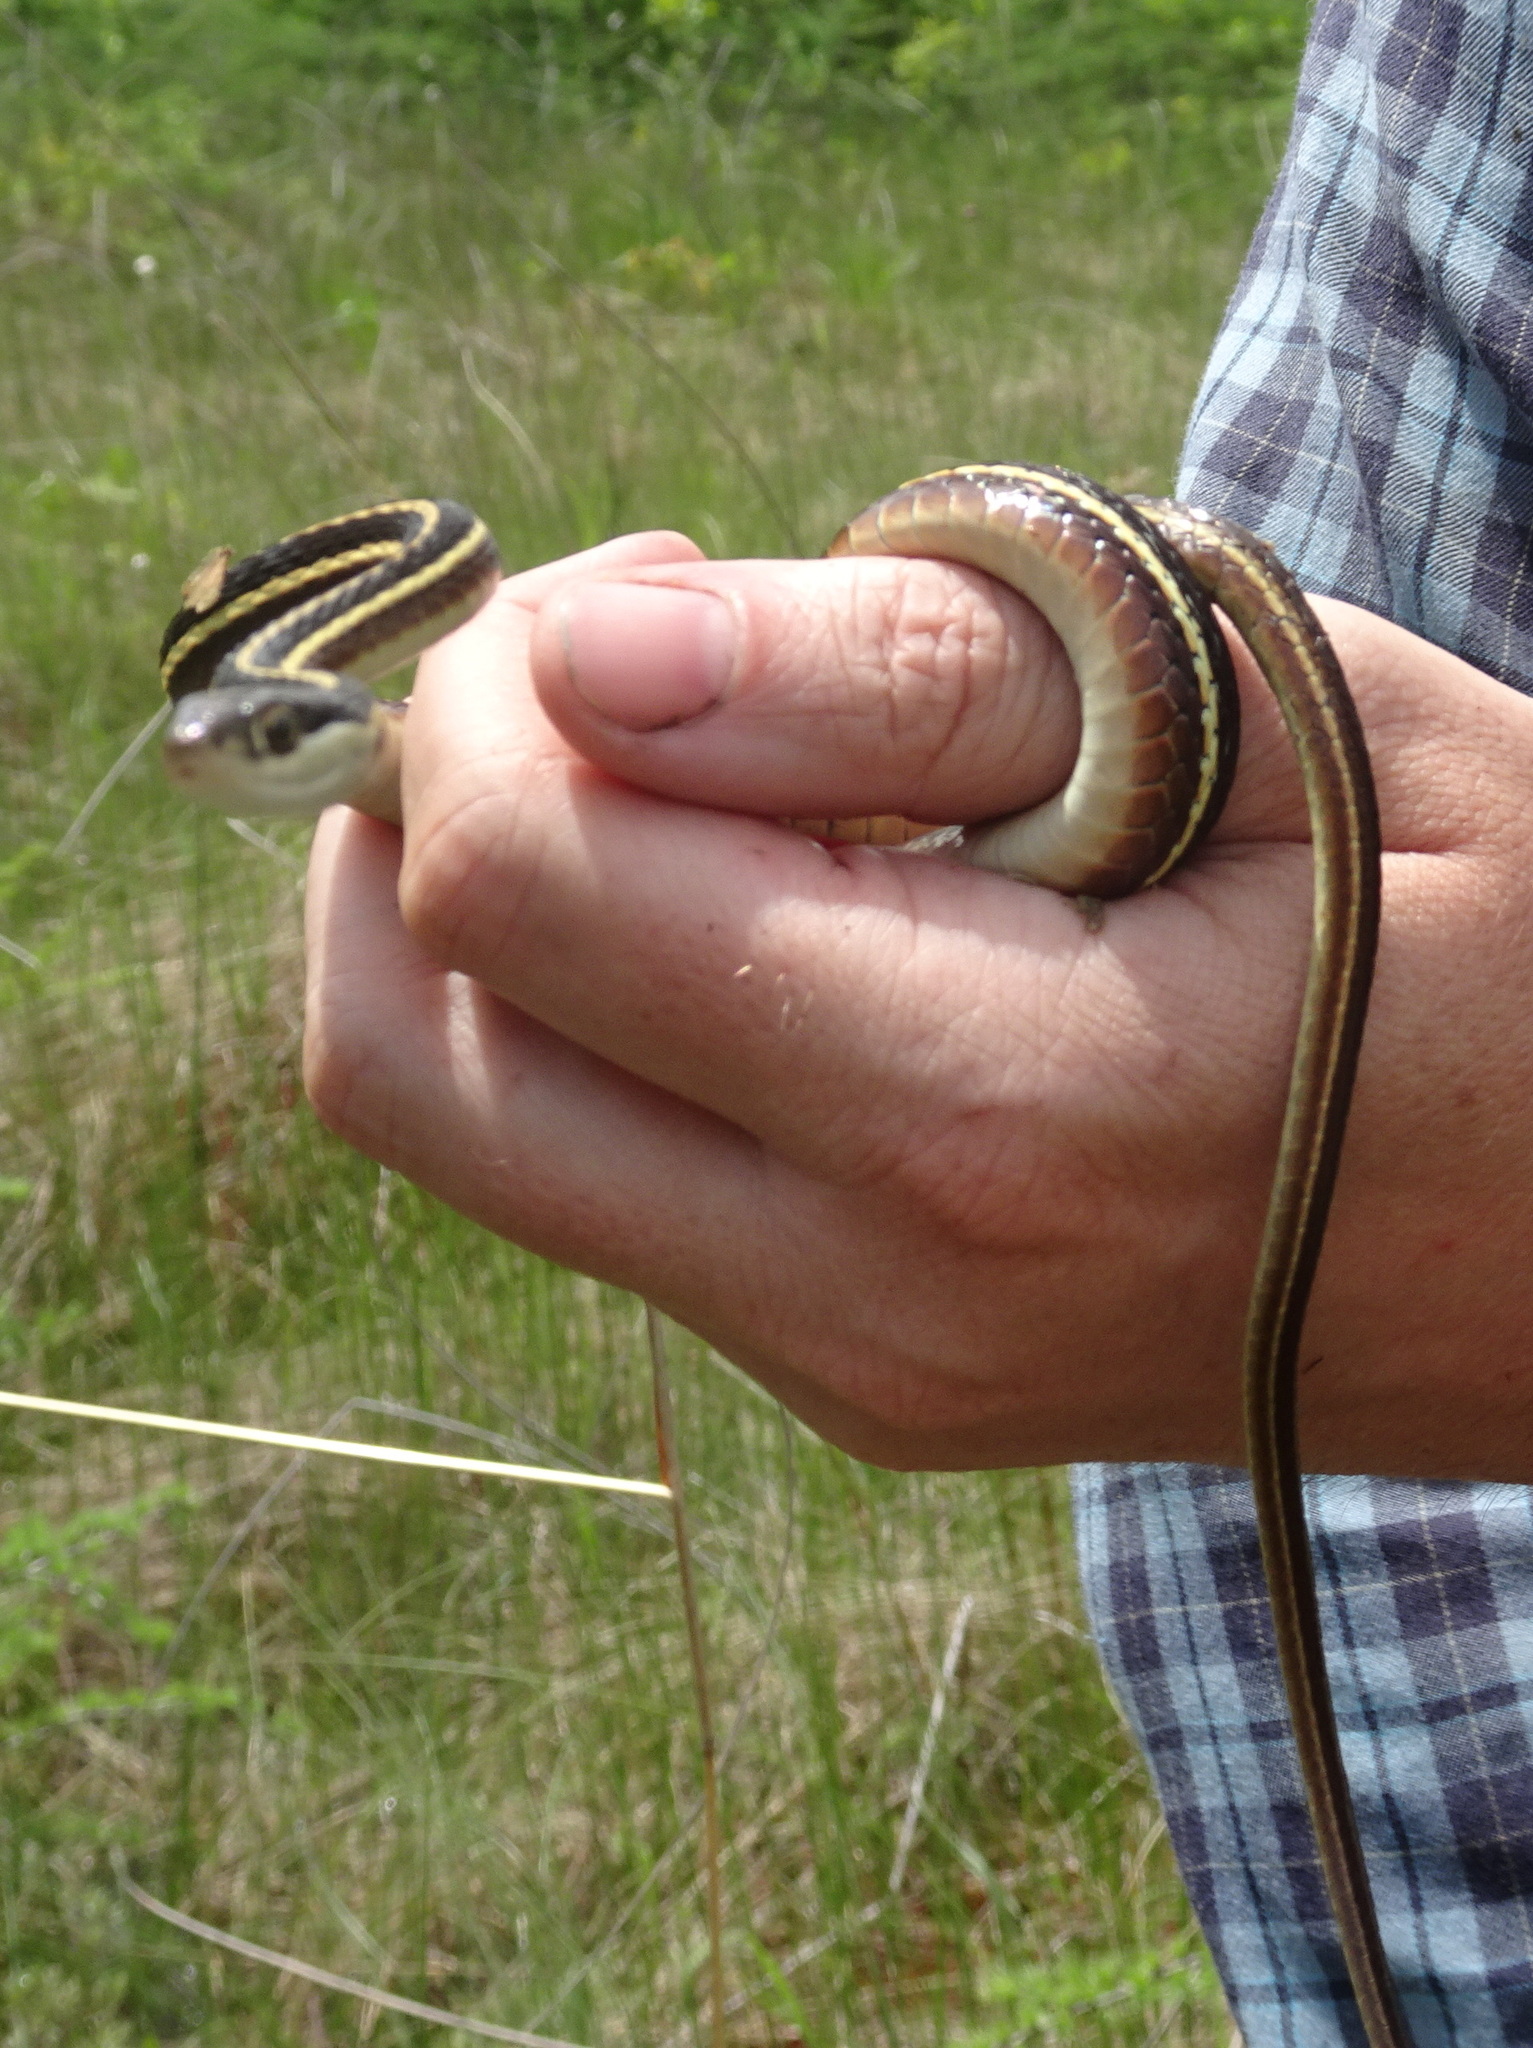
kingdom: Animalia
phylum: Chordata
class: Squamata
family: Colubridae
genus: Thamnophis
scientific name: Thamnophis saurita
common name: Eastern ribbonsnake
